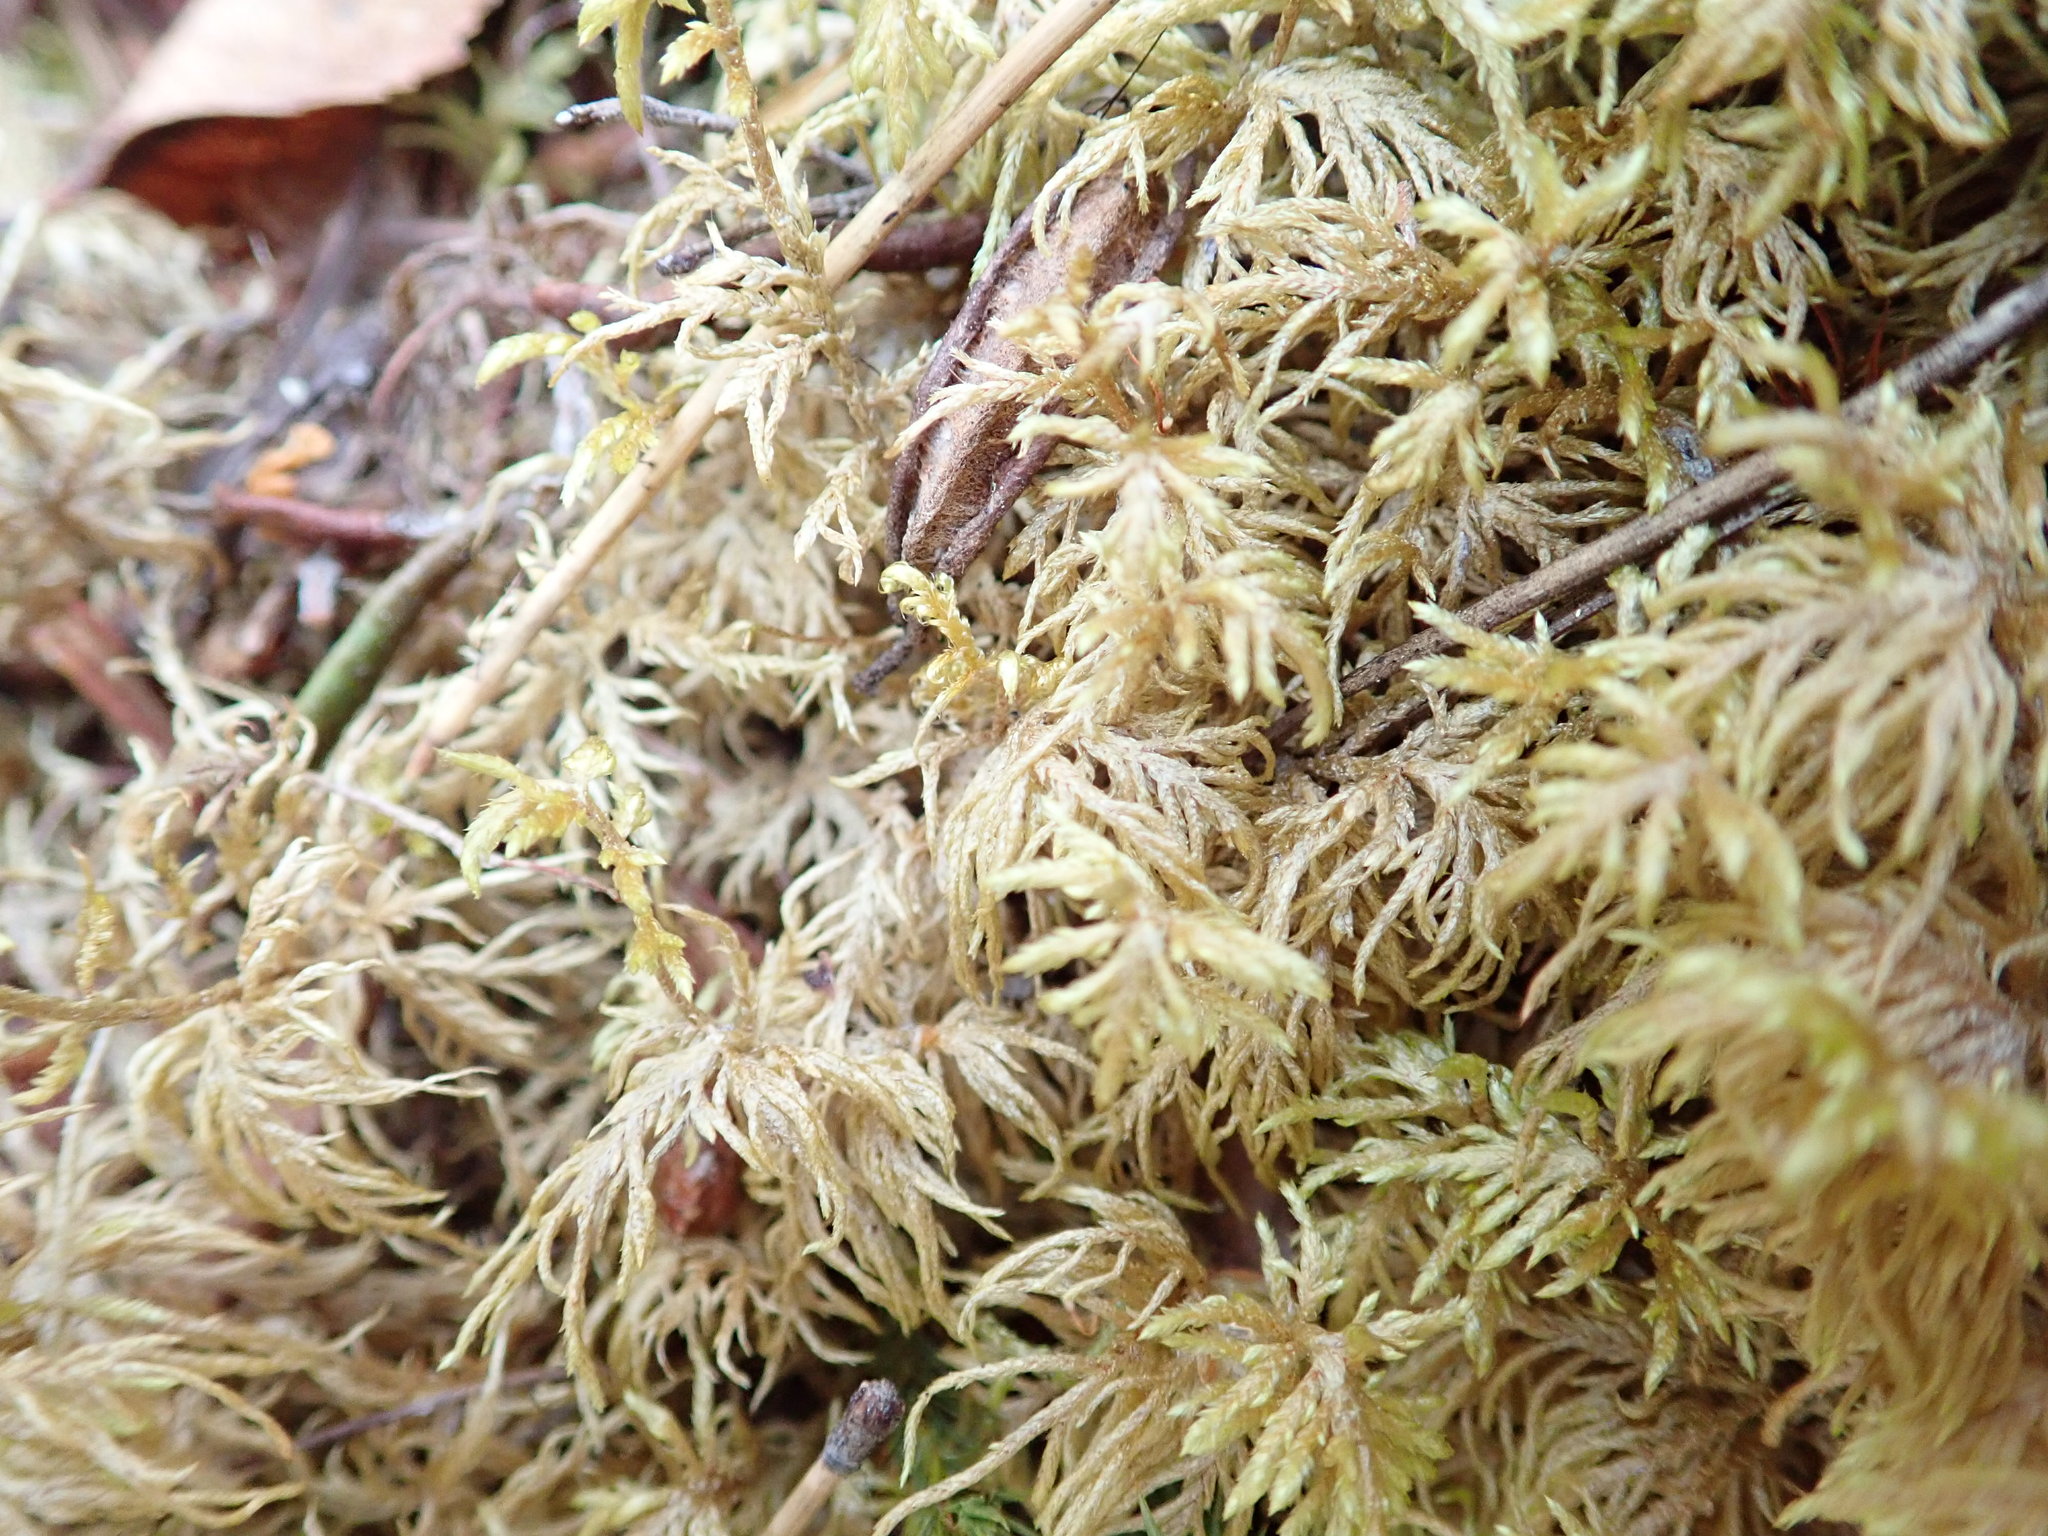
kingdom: Plantae
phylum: Bryophyta
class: Bryopsida
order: Hypnales
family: Hylocomiaceae
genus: Hylocomium
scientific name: Hylocomium splendens
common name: Stairstep moss
